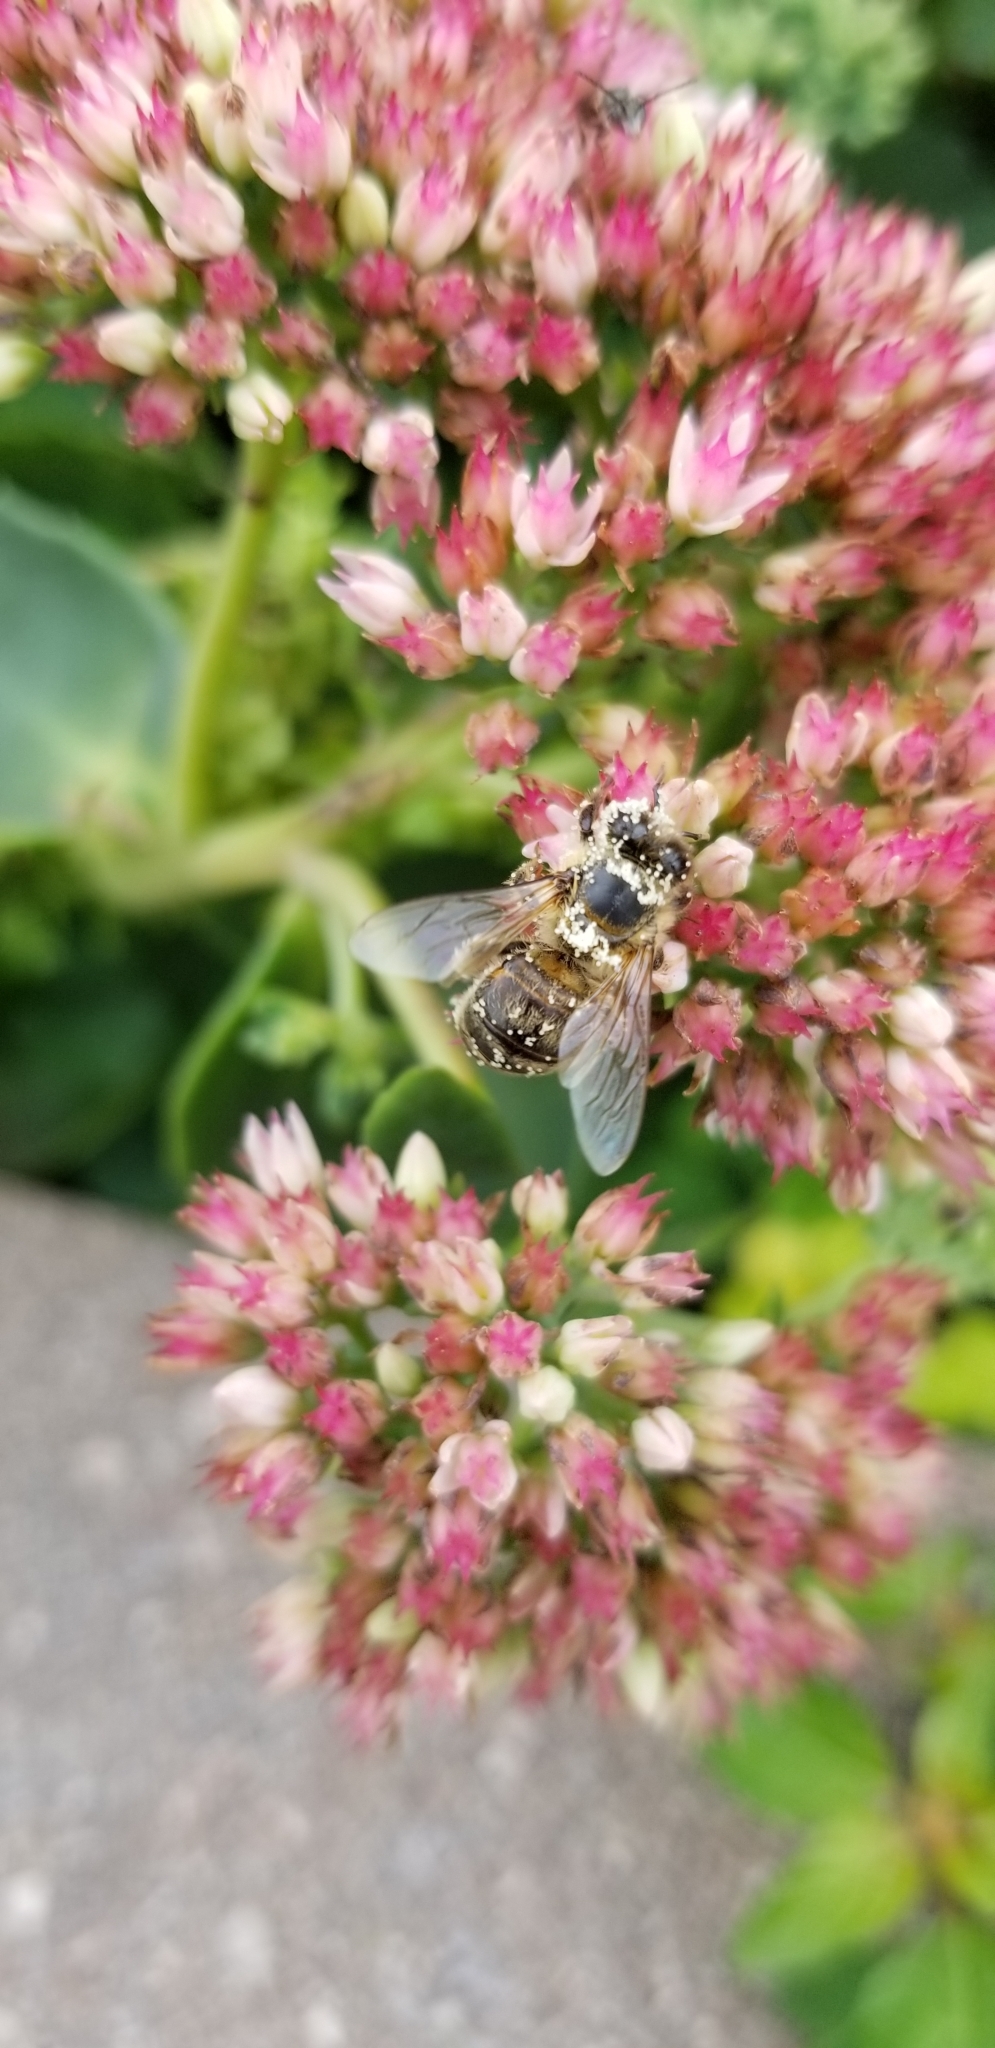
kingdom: Animalia
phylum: Arthropoda
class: Insecta
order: Hymenoptera
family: Apidae
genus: Apis
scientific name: Apis mellifera
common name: Honey bee
